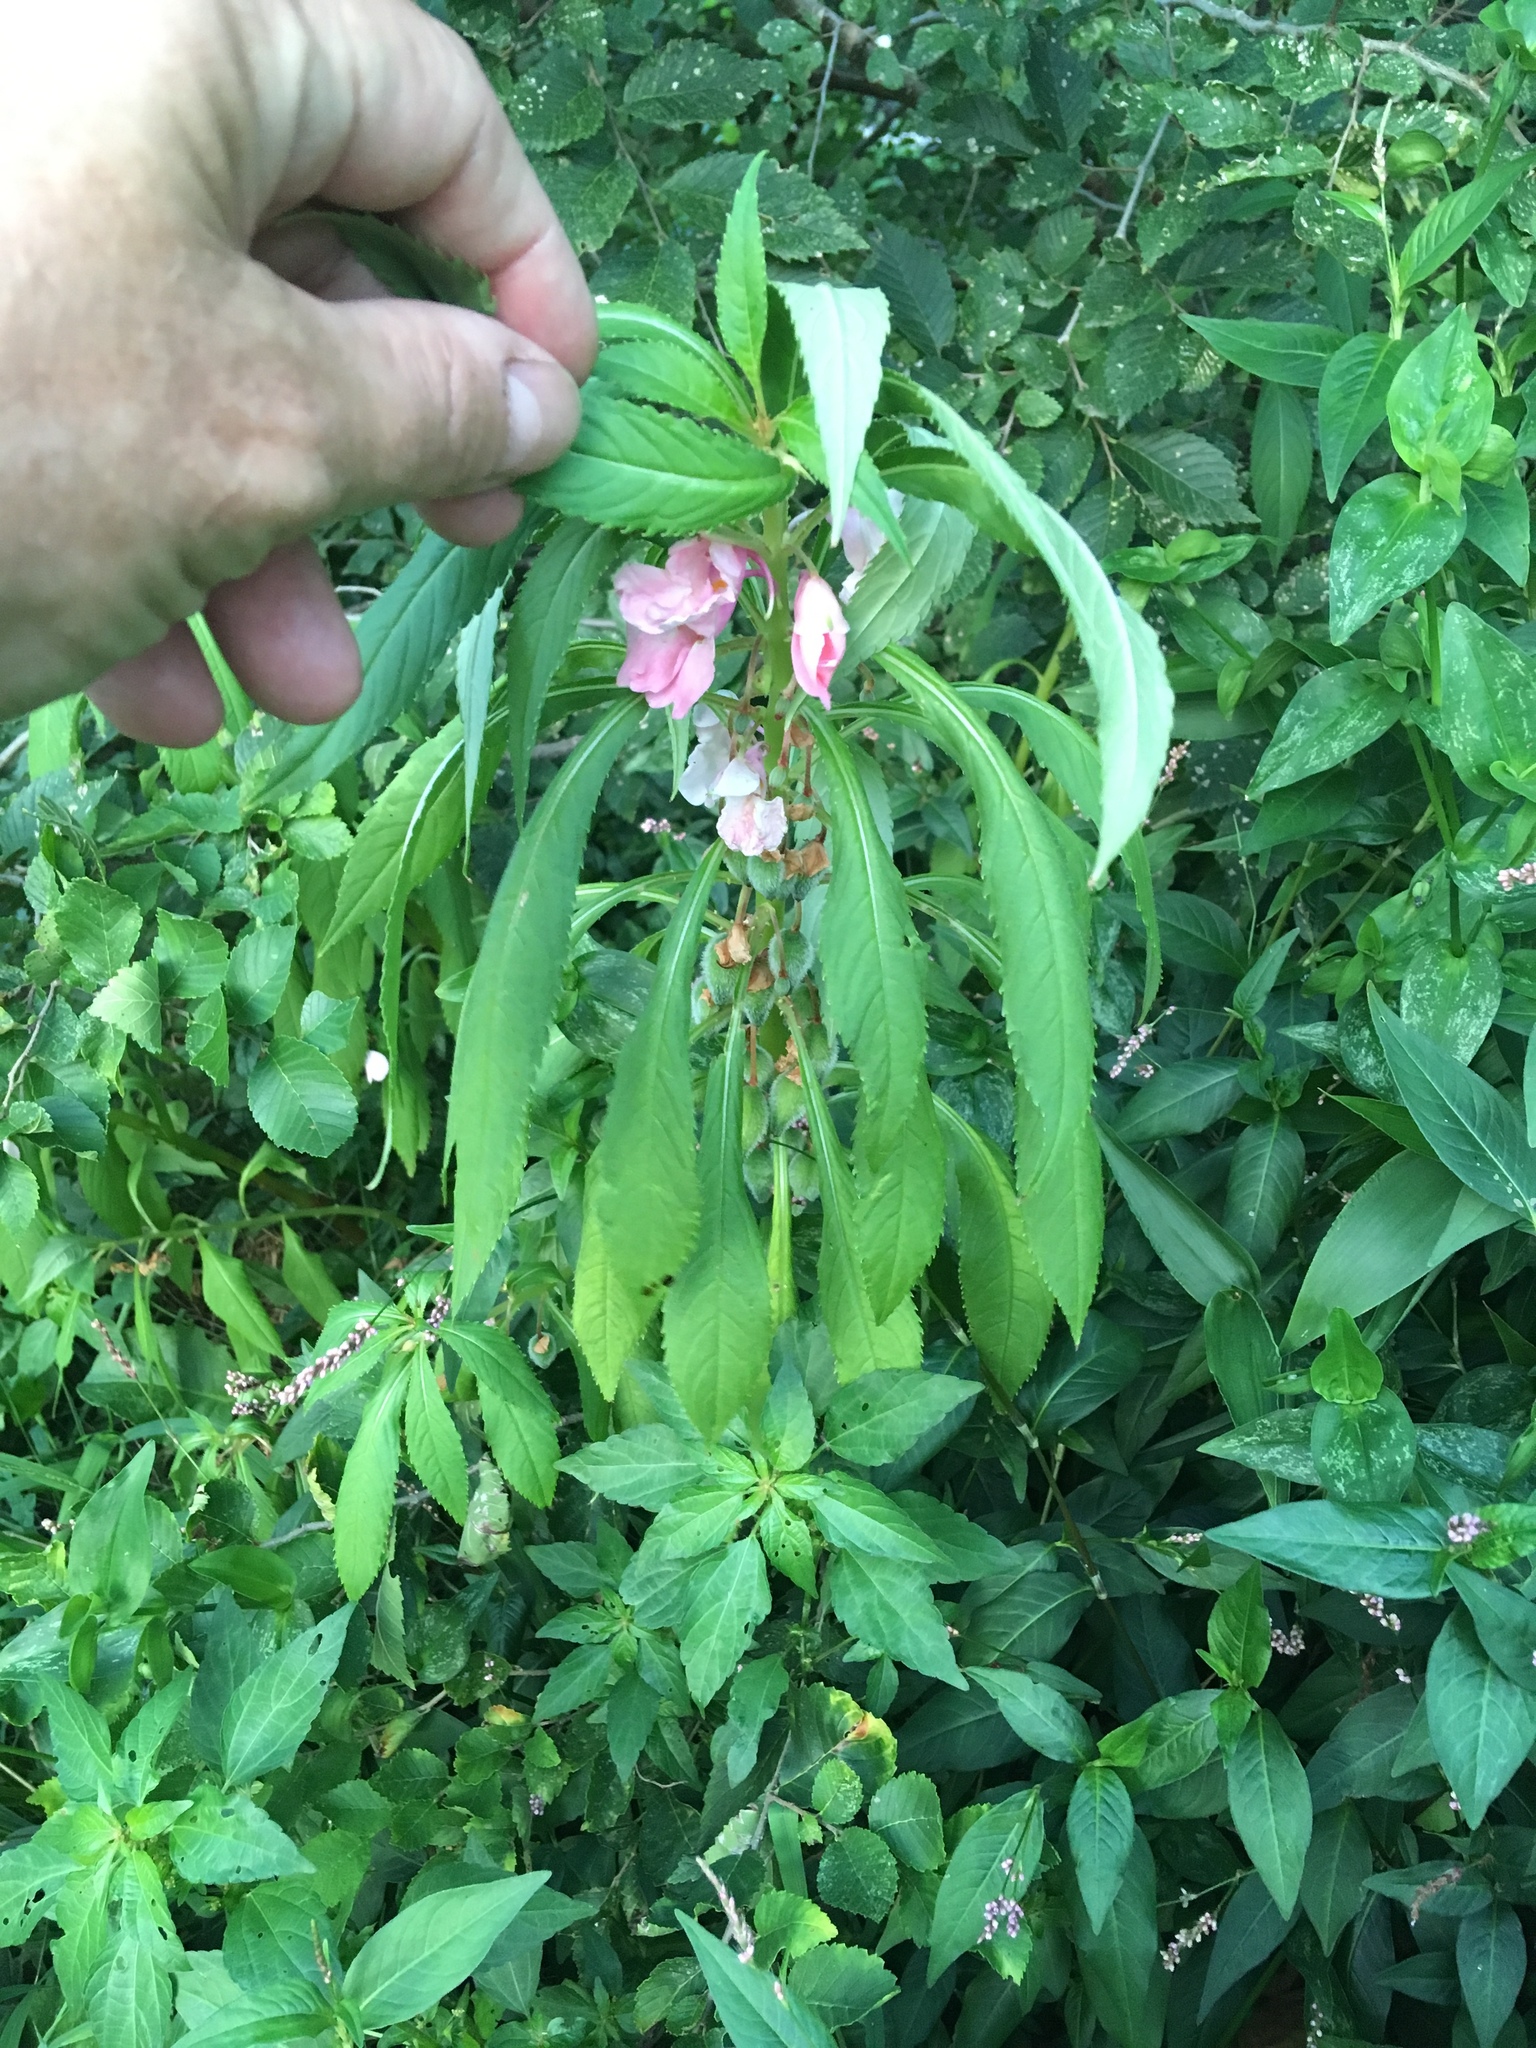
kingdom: Plantae
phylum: Tracheophyta
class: Magnoliopsida
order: Ericales
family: Balsaminaceae
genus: Impatiens
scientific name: Impatiens balsamina
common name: Balsam
